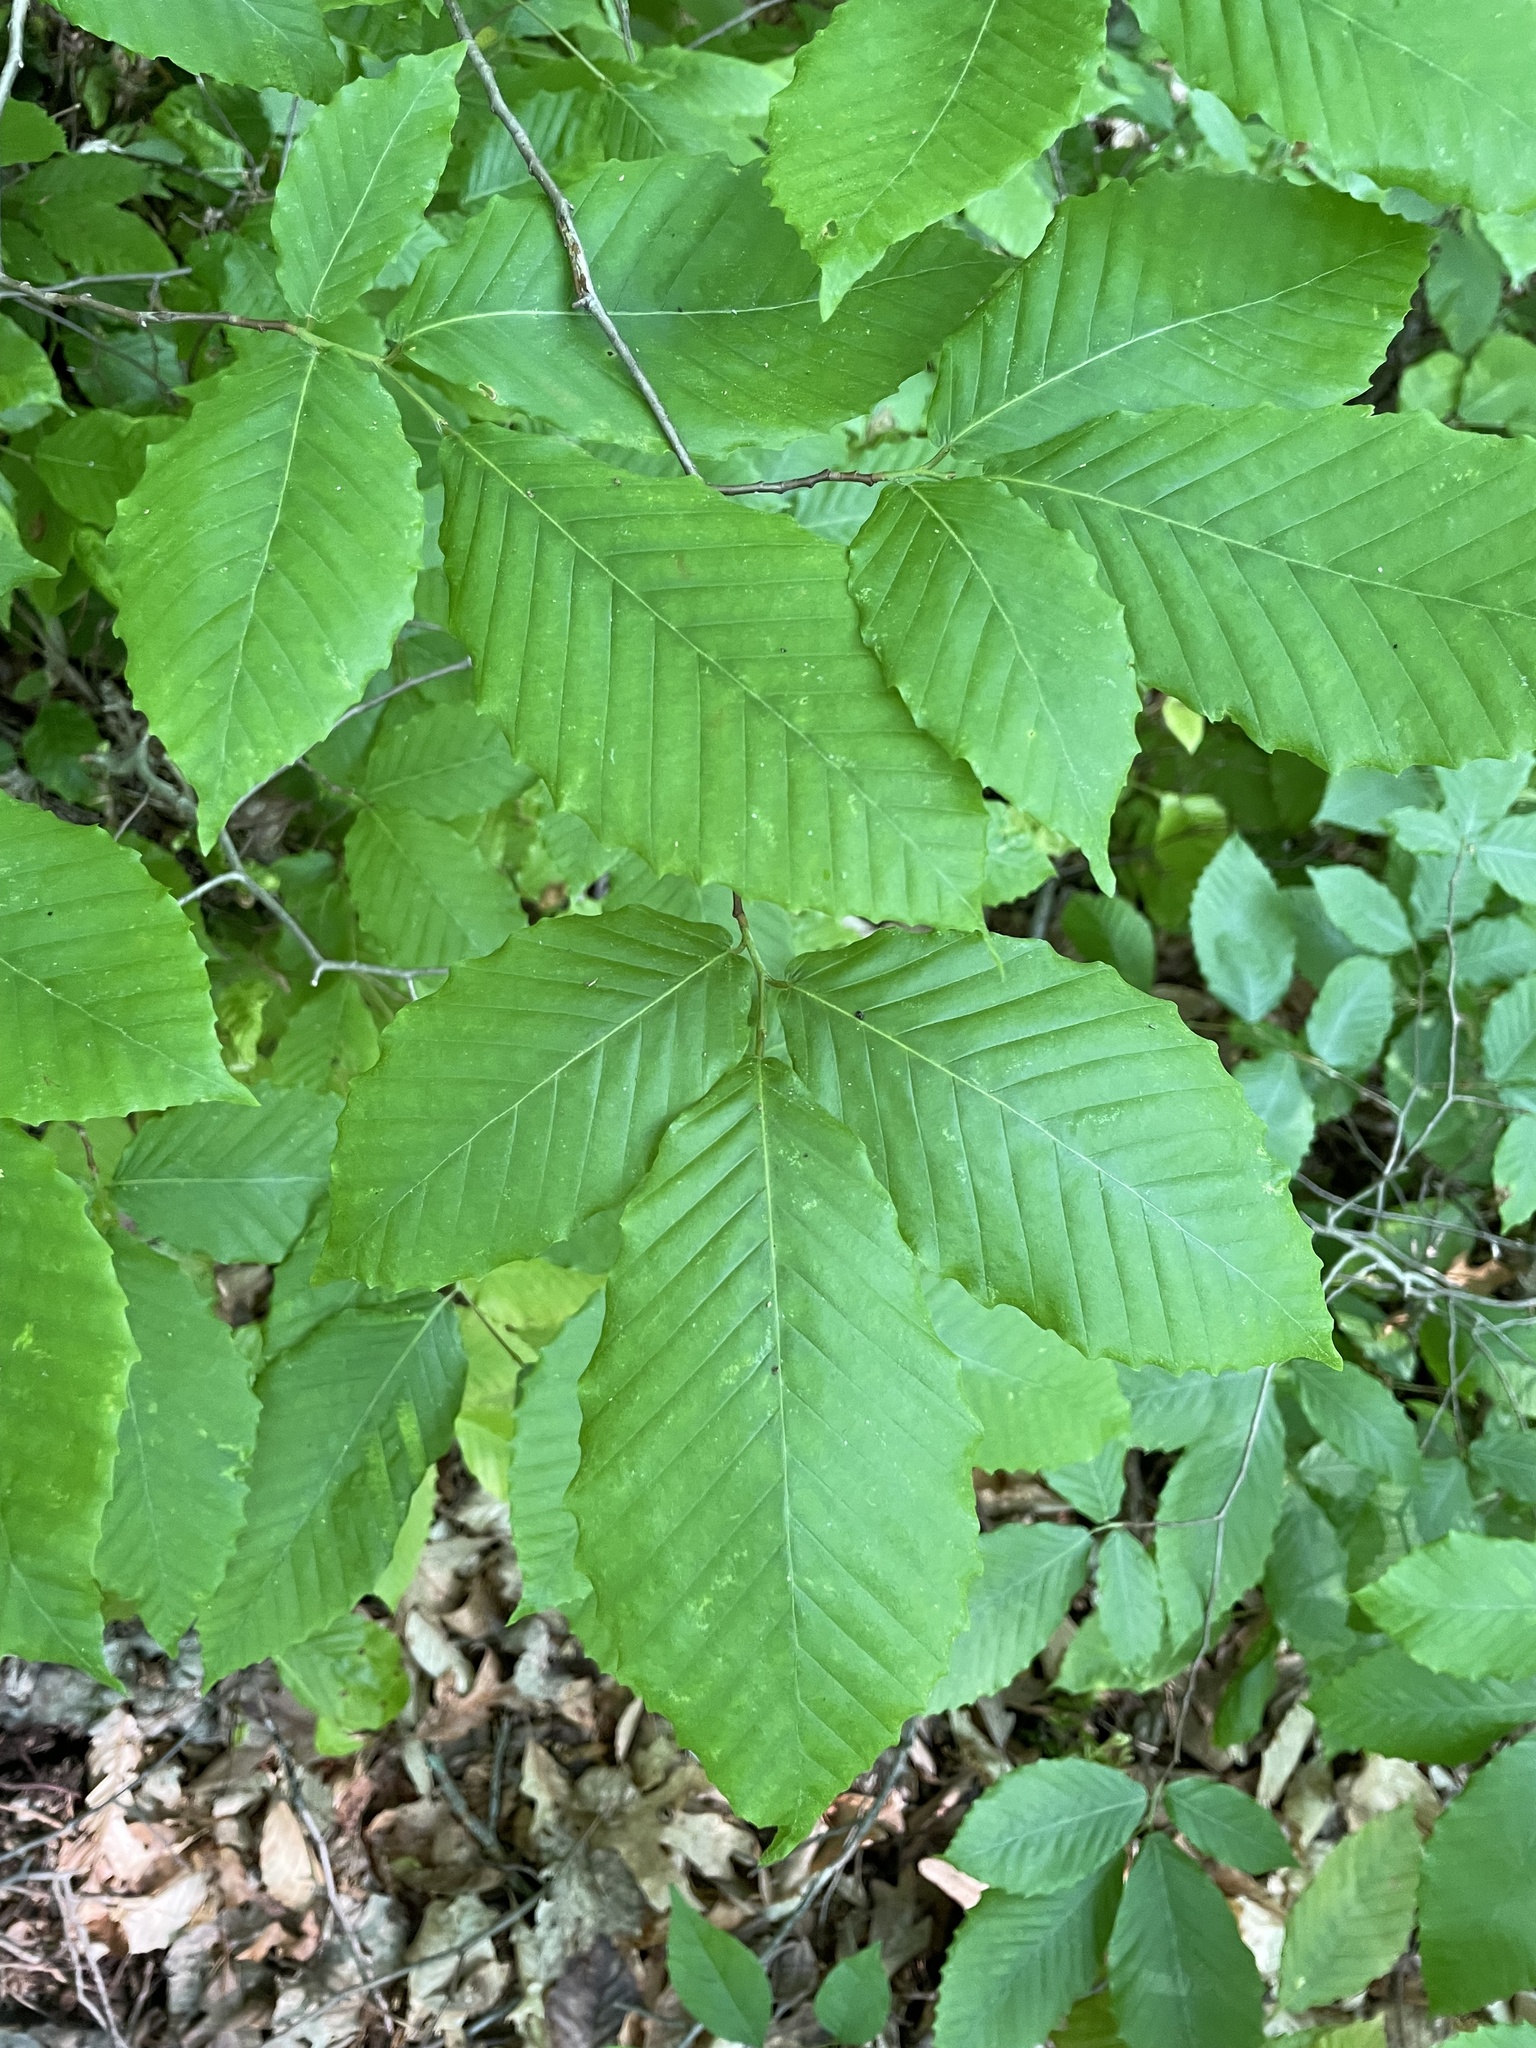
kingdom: Plantae
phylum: Tracheophyta
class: Magnoliopsida
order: Fagales
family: Fagaceae
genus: Fagus
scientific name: Fagus grandifolia
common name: American beech
